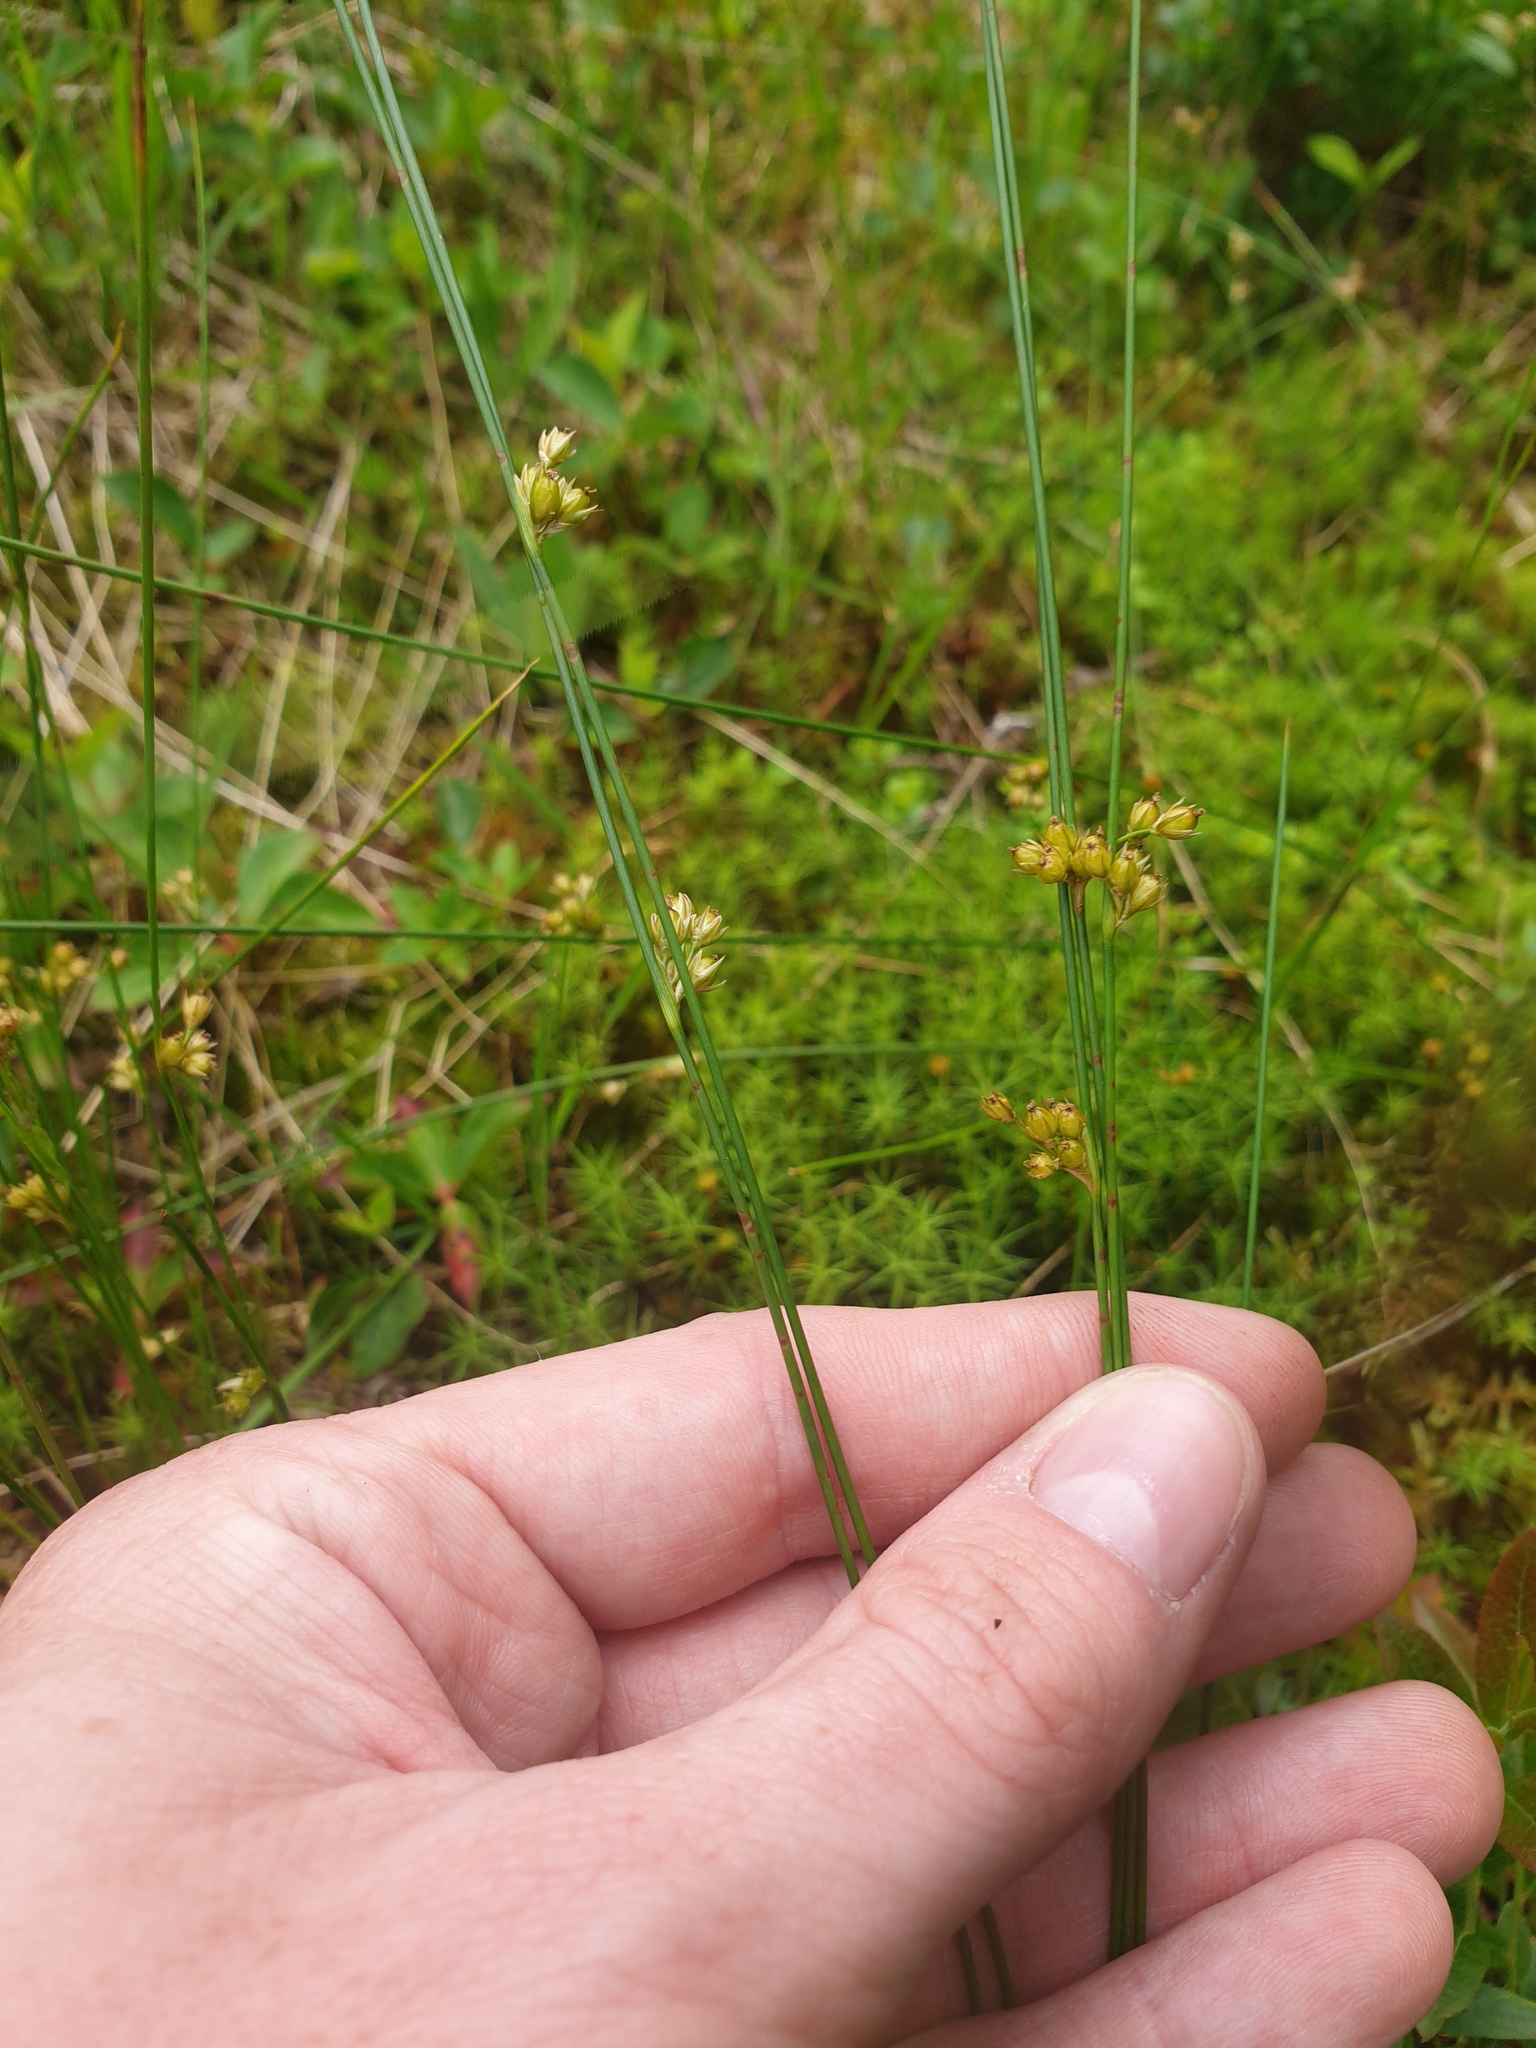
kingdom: Plantae
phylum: Tracheophyta
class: Liliopsida
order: Poales
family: Juncaceae
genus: Juncus
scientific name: Juncus filiformis
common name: Thread rush
